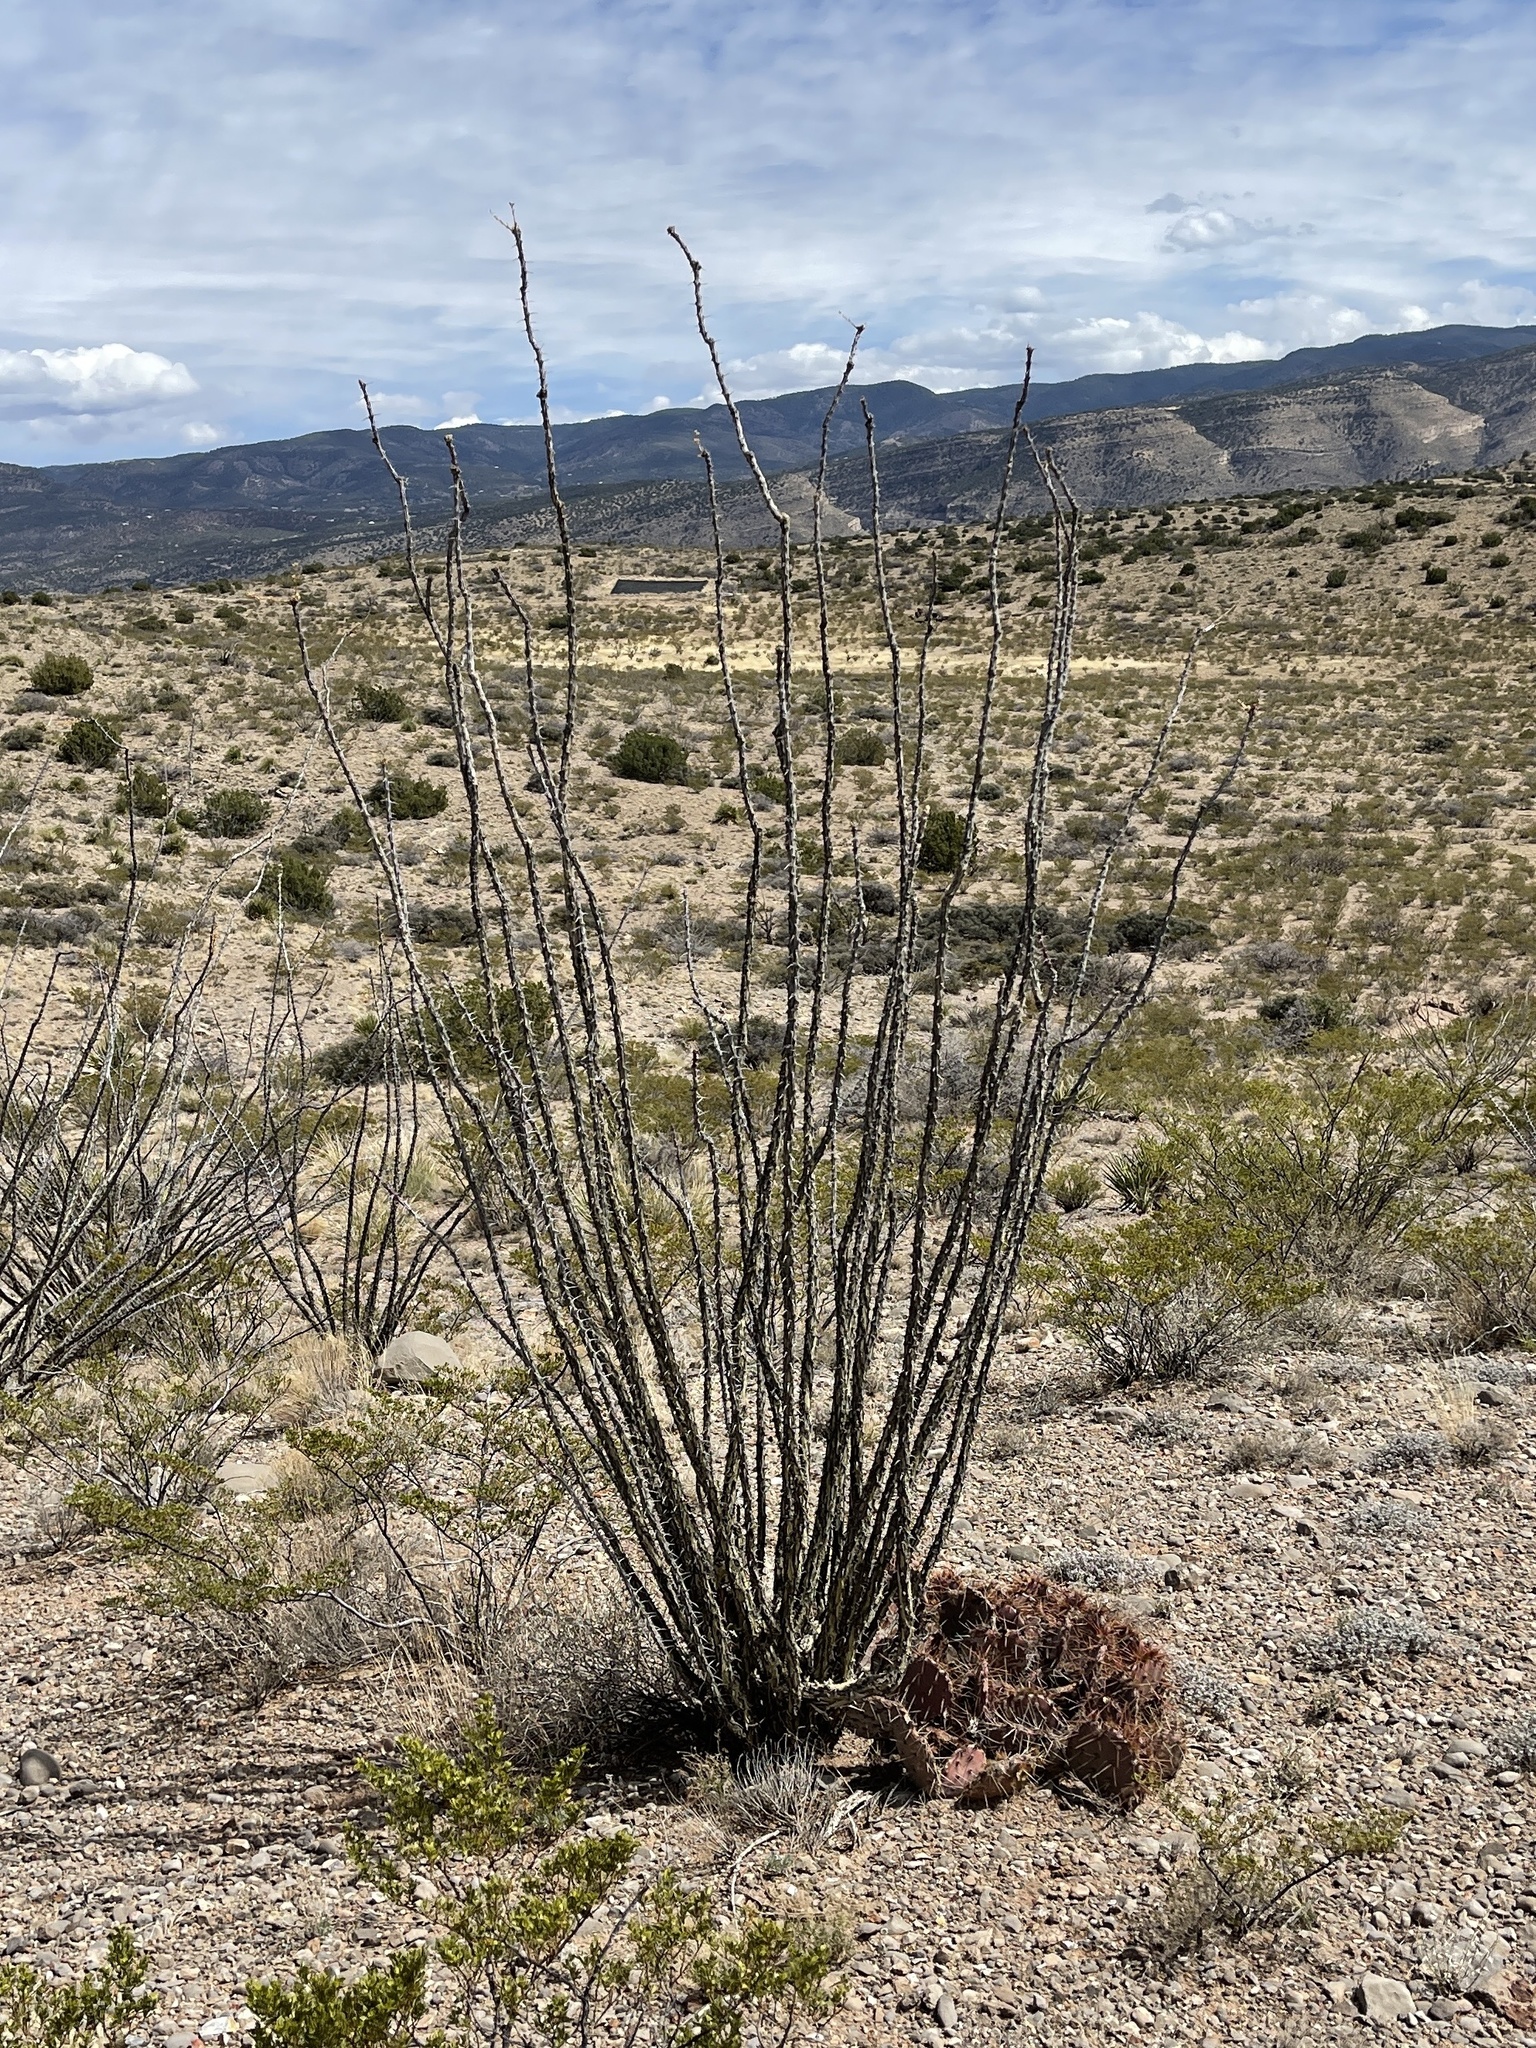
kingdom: Plantae
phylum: Tracheophyta
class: Magnoliopsida
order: Ericales
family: Fouquieriaceae
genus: Fouquieria
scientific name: Fouquieria splendens
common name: Vine-cactus
